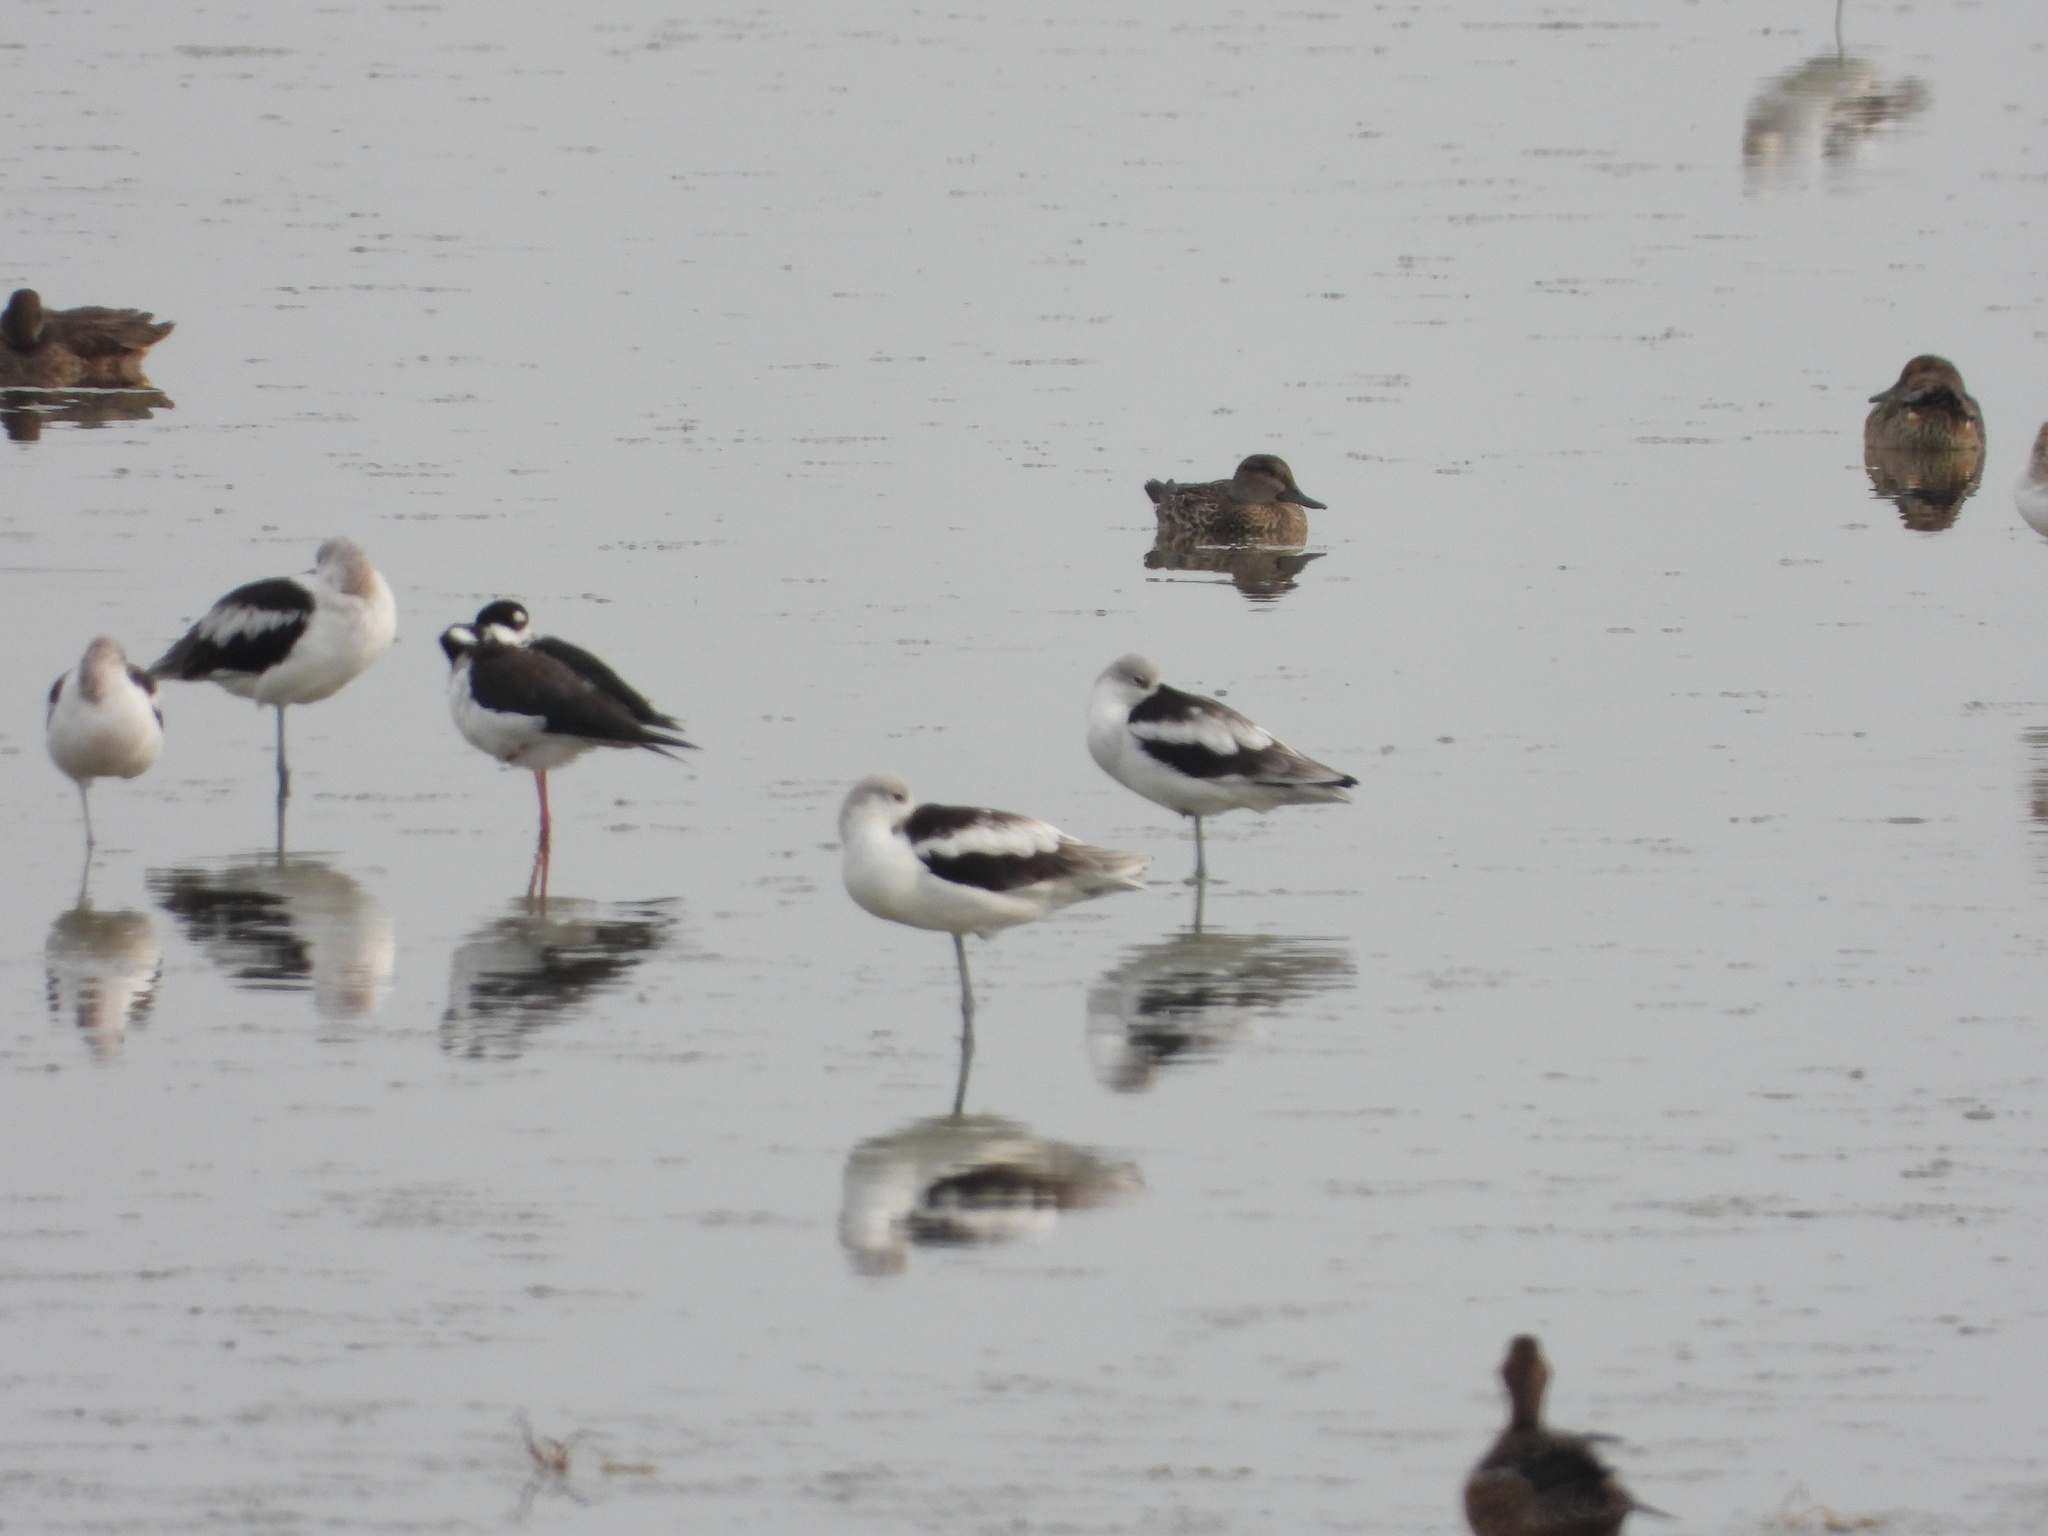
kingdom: Animalia
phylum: Chordata
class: Aves
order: Anseriformes
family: Anatidae
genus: Anas
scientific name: Anas crecca
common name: Eurasian teal
